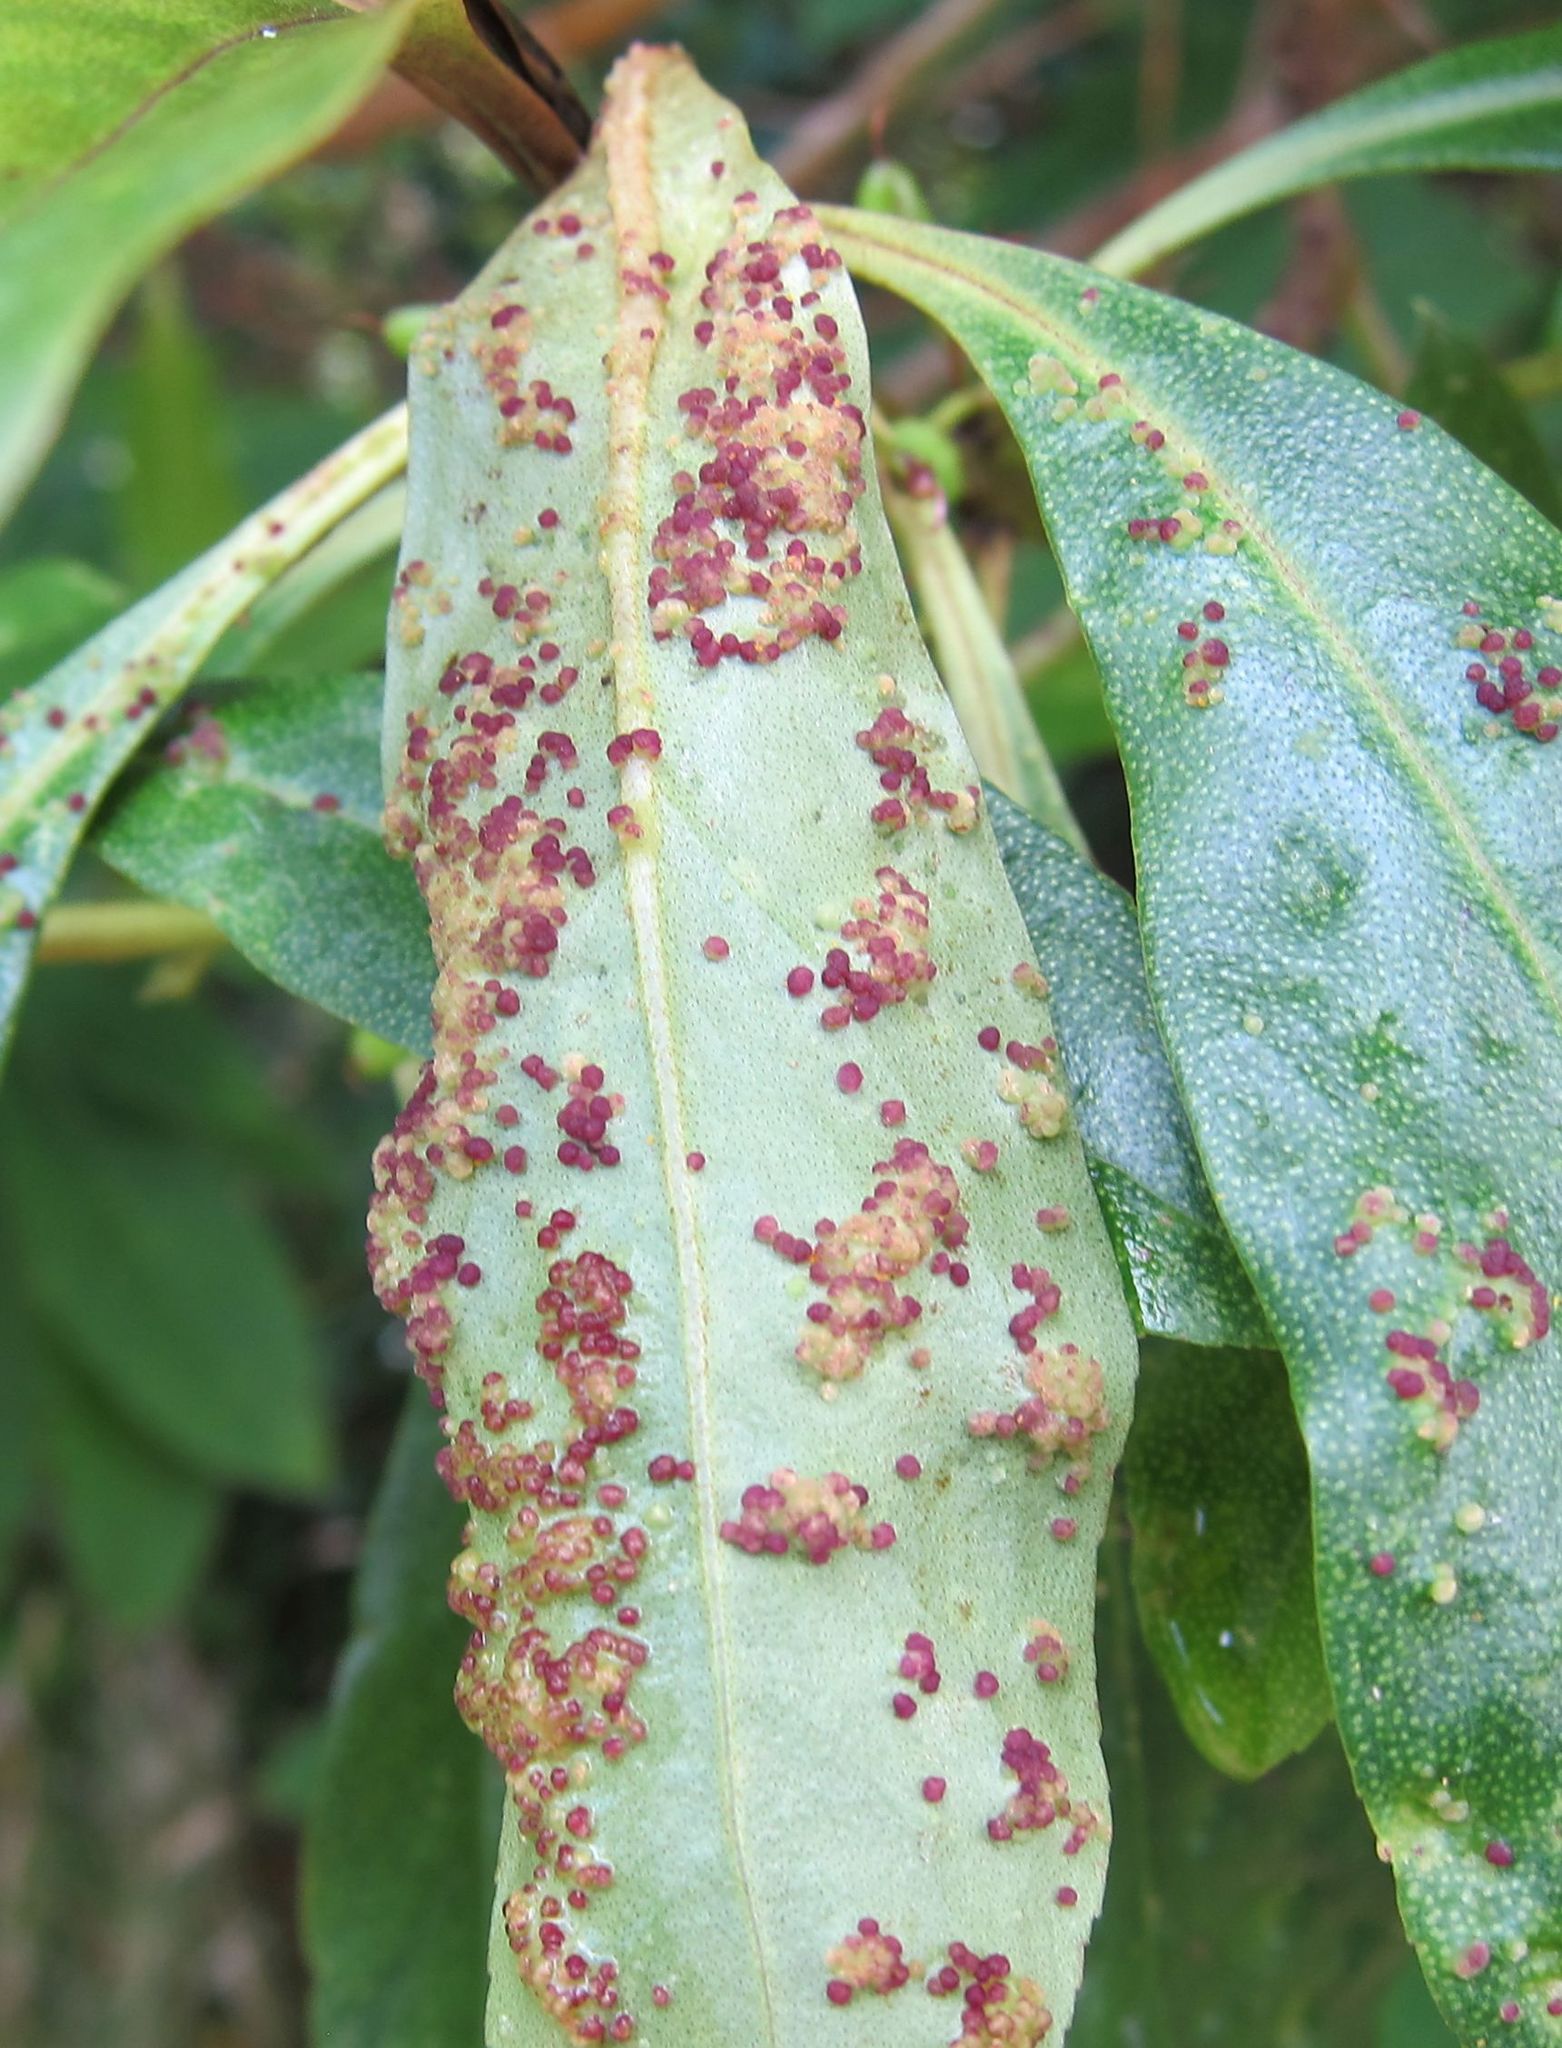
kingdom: Animalia
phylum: Arthropoda
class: Arachnida
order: Trombidiformes
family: Eriophyidae
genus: Aceria
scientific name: Aceria healyi
